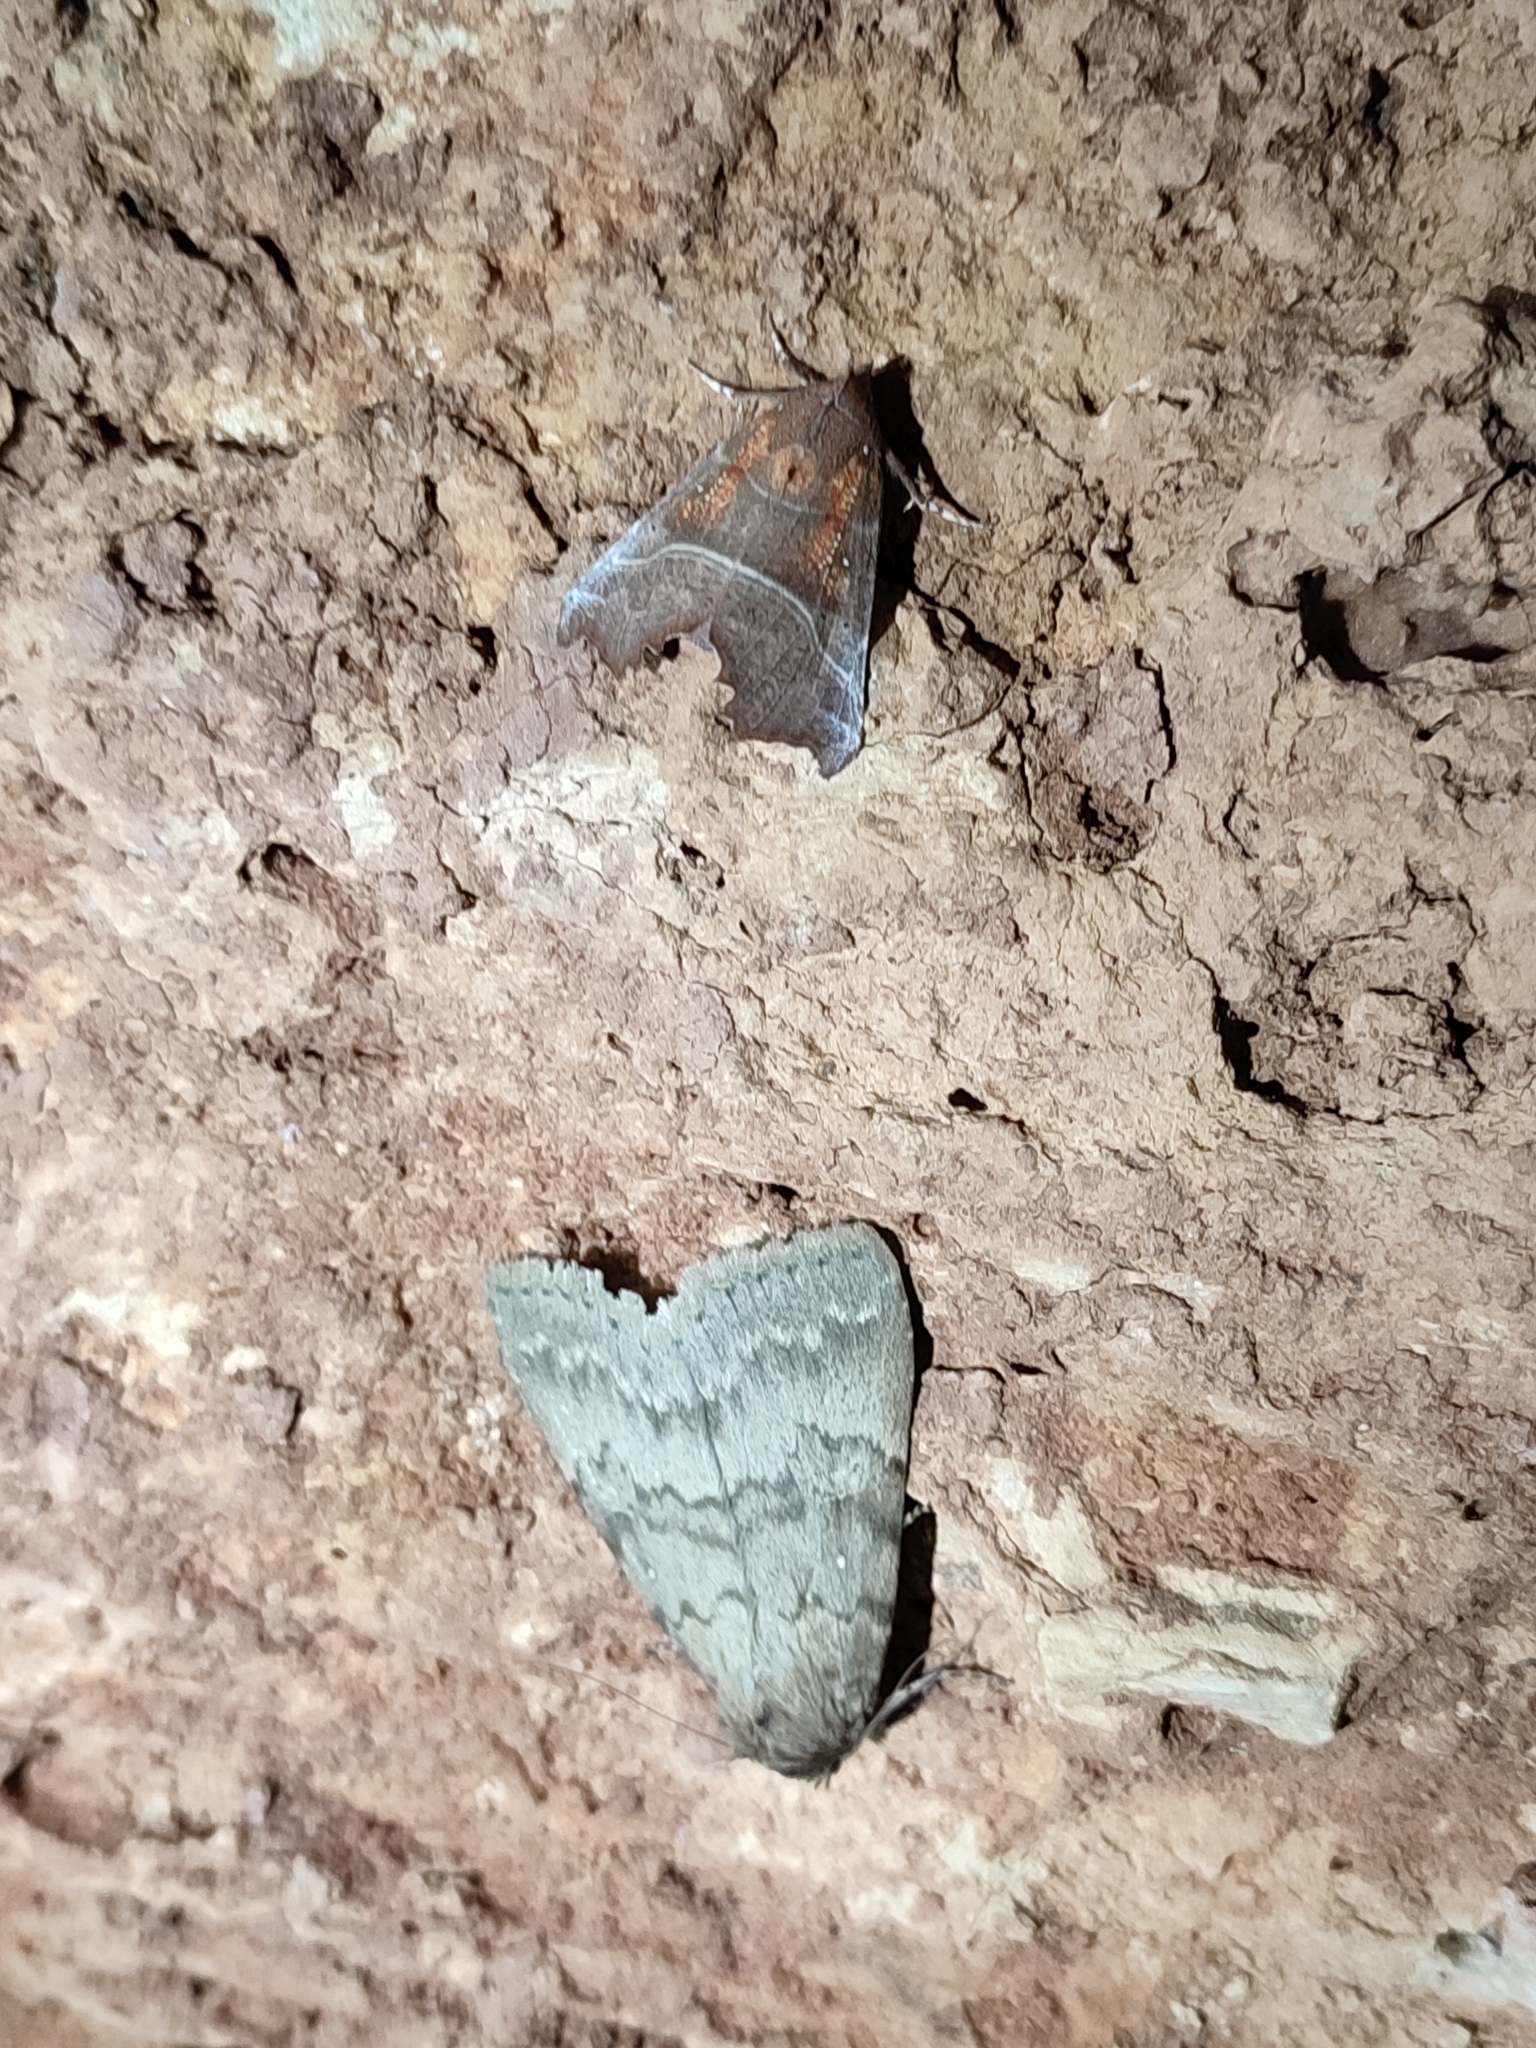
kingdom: Animalia
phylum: Arthropoda
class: Insecta
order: Lepidoptera
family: Erebidae
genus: Apopestes
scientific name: Apopestes spectrum
